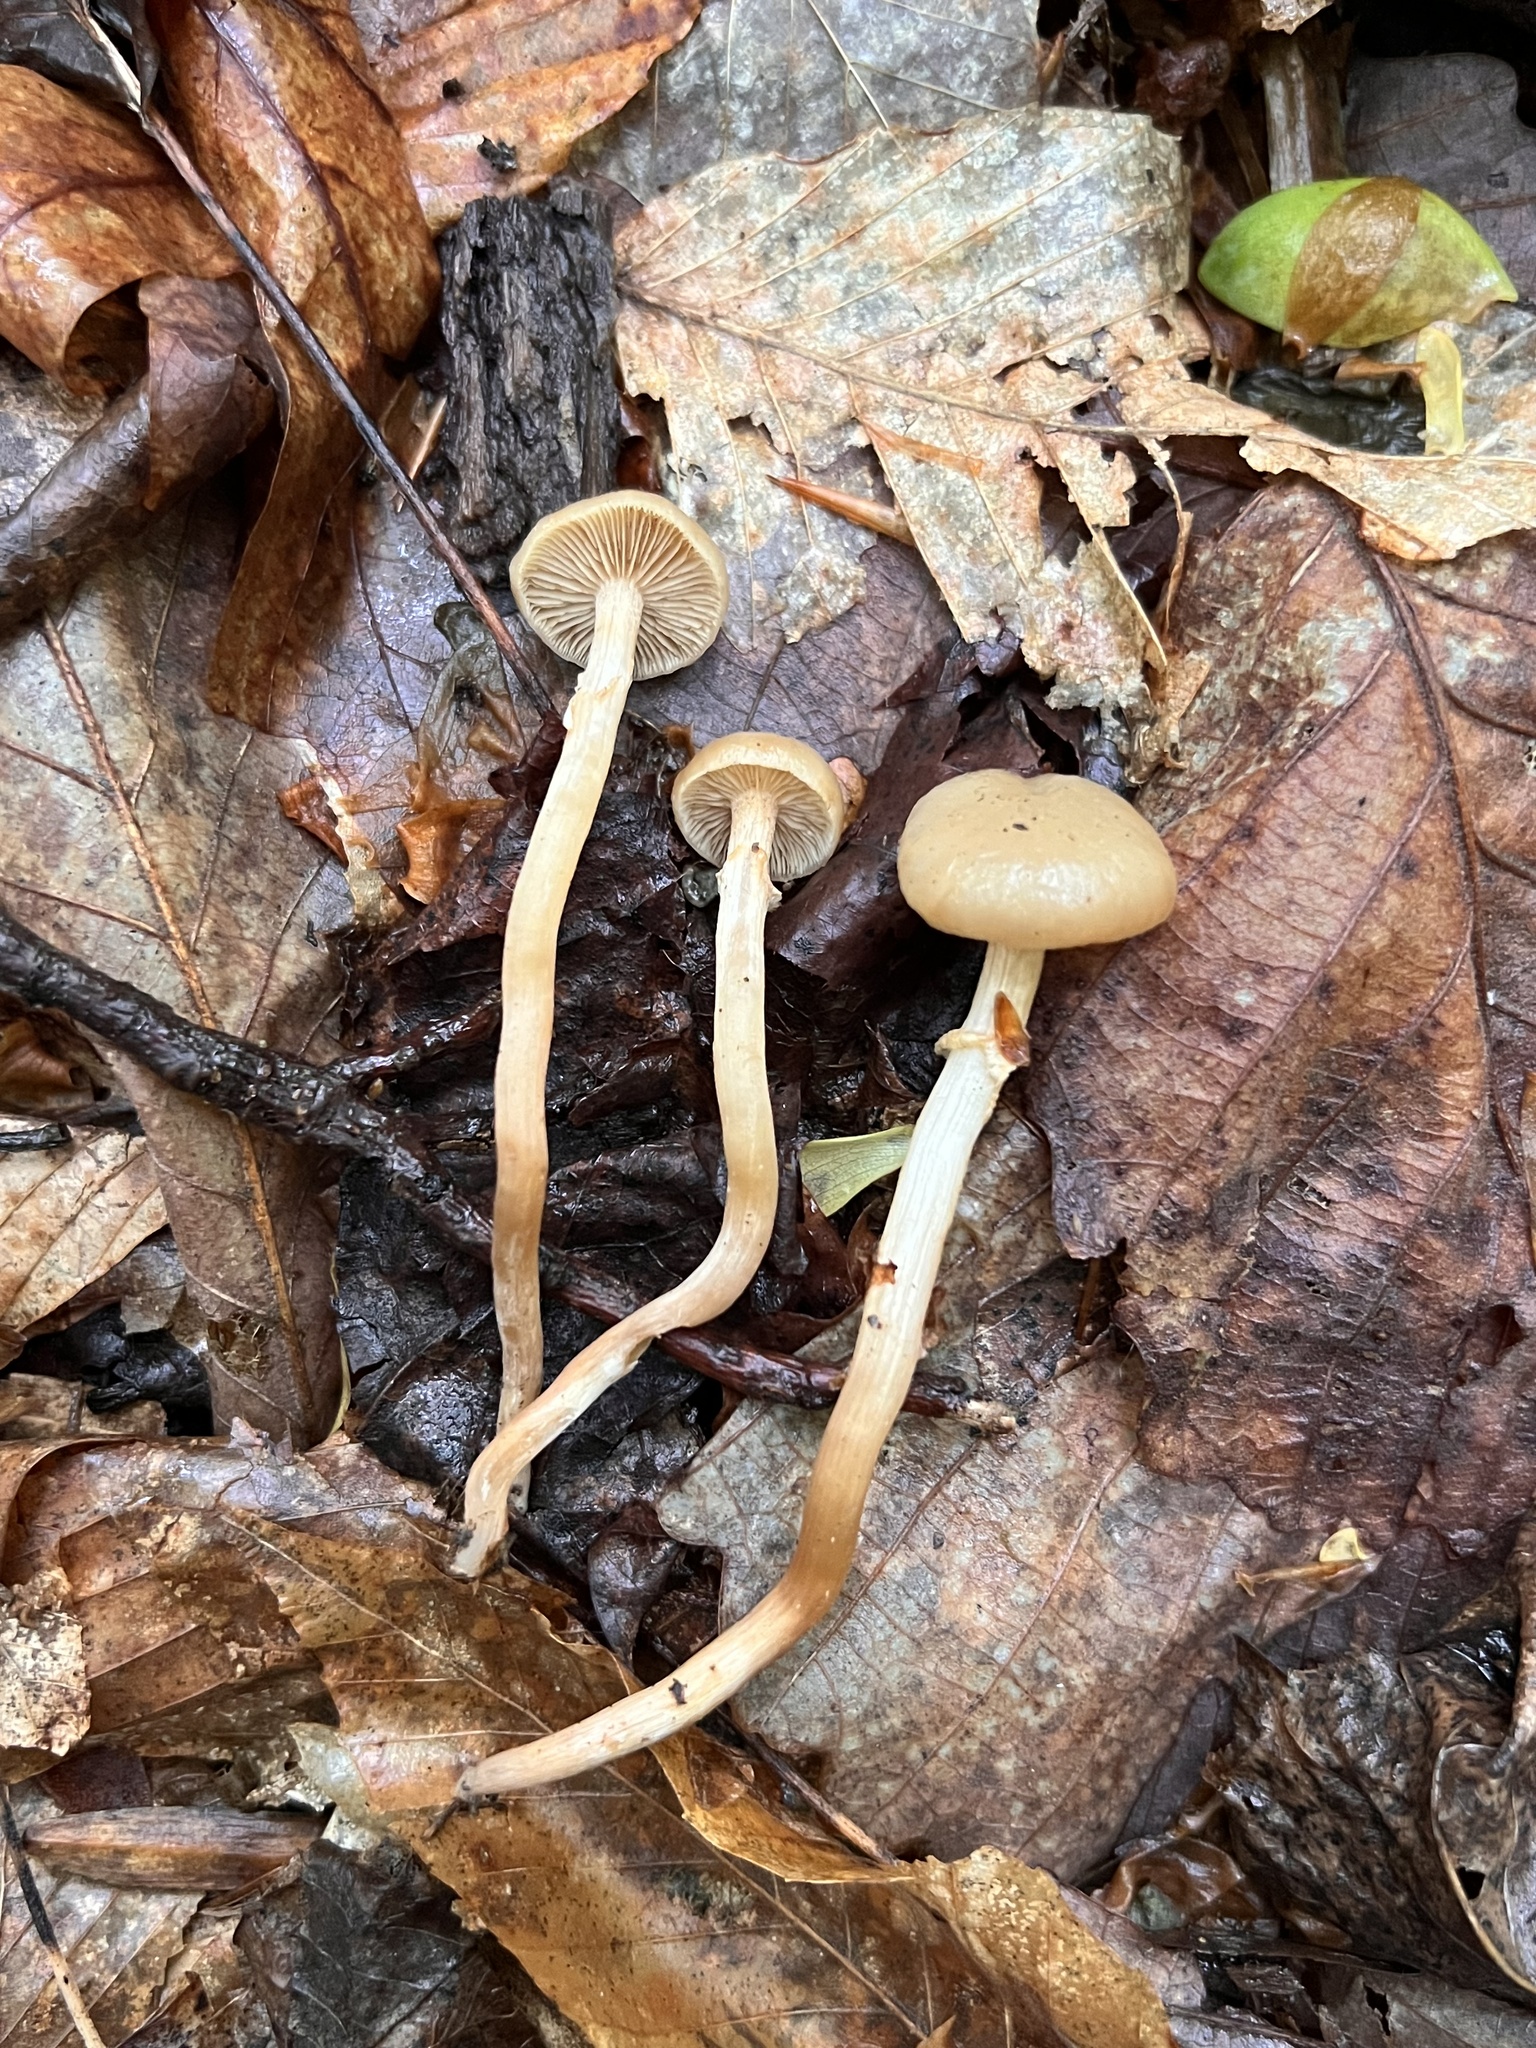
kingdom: Fungi
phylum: Basidiomycota
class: Agaricomycetes
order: Agaricales
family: Strophariaceae
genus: Kuehneromyces
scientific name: Kuehneromyces marginellus
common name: Sheathed woodtuft
